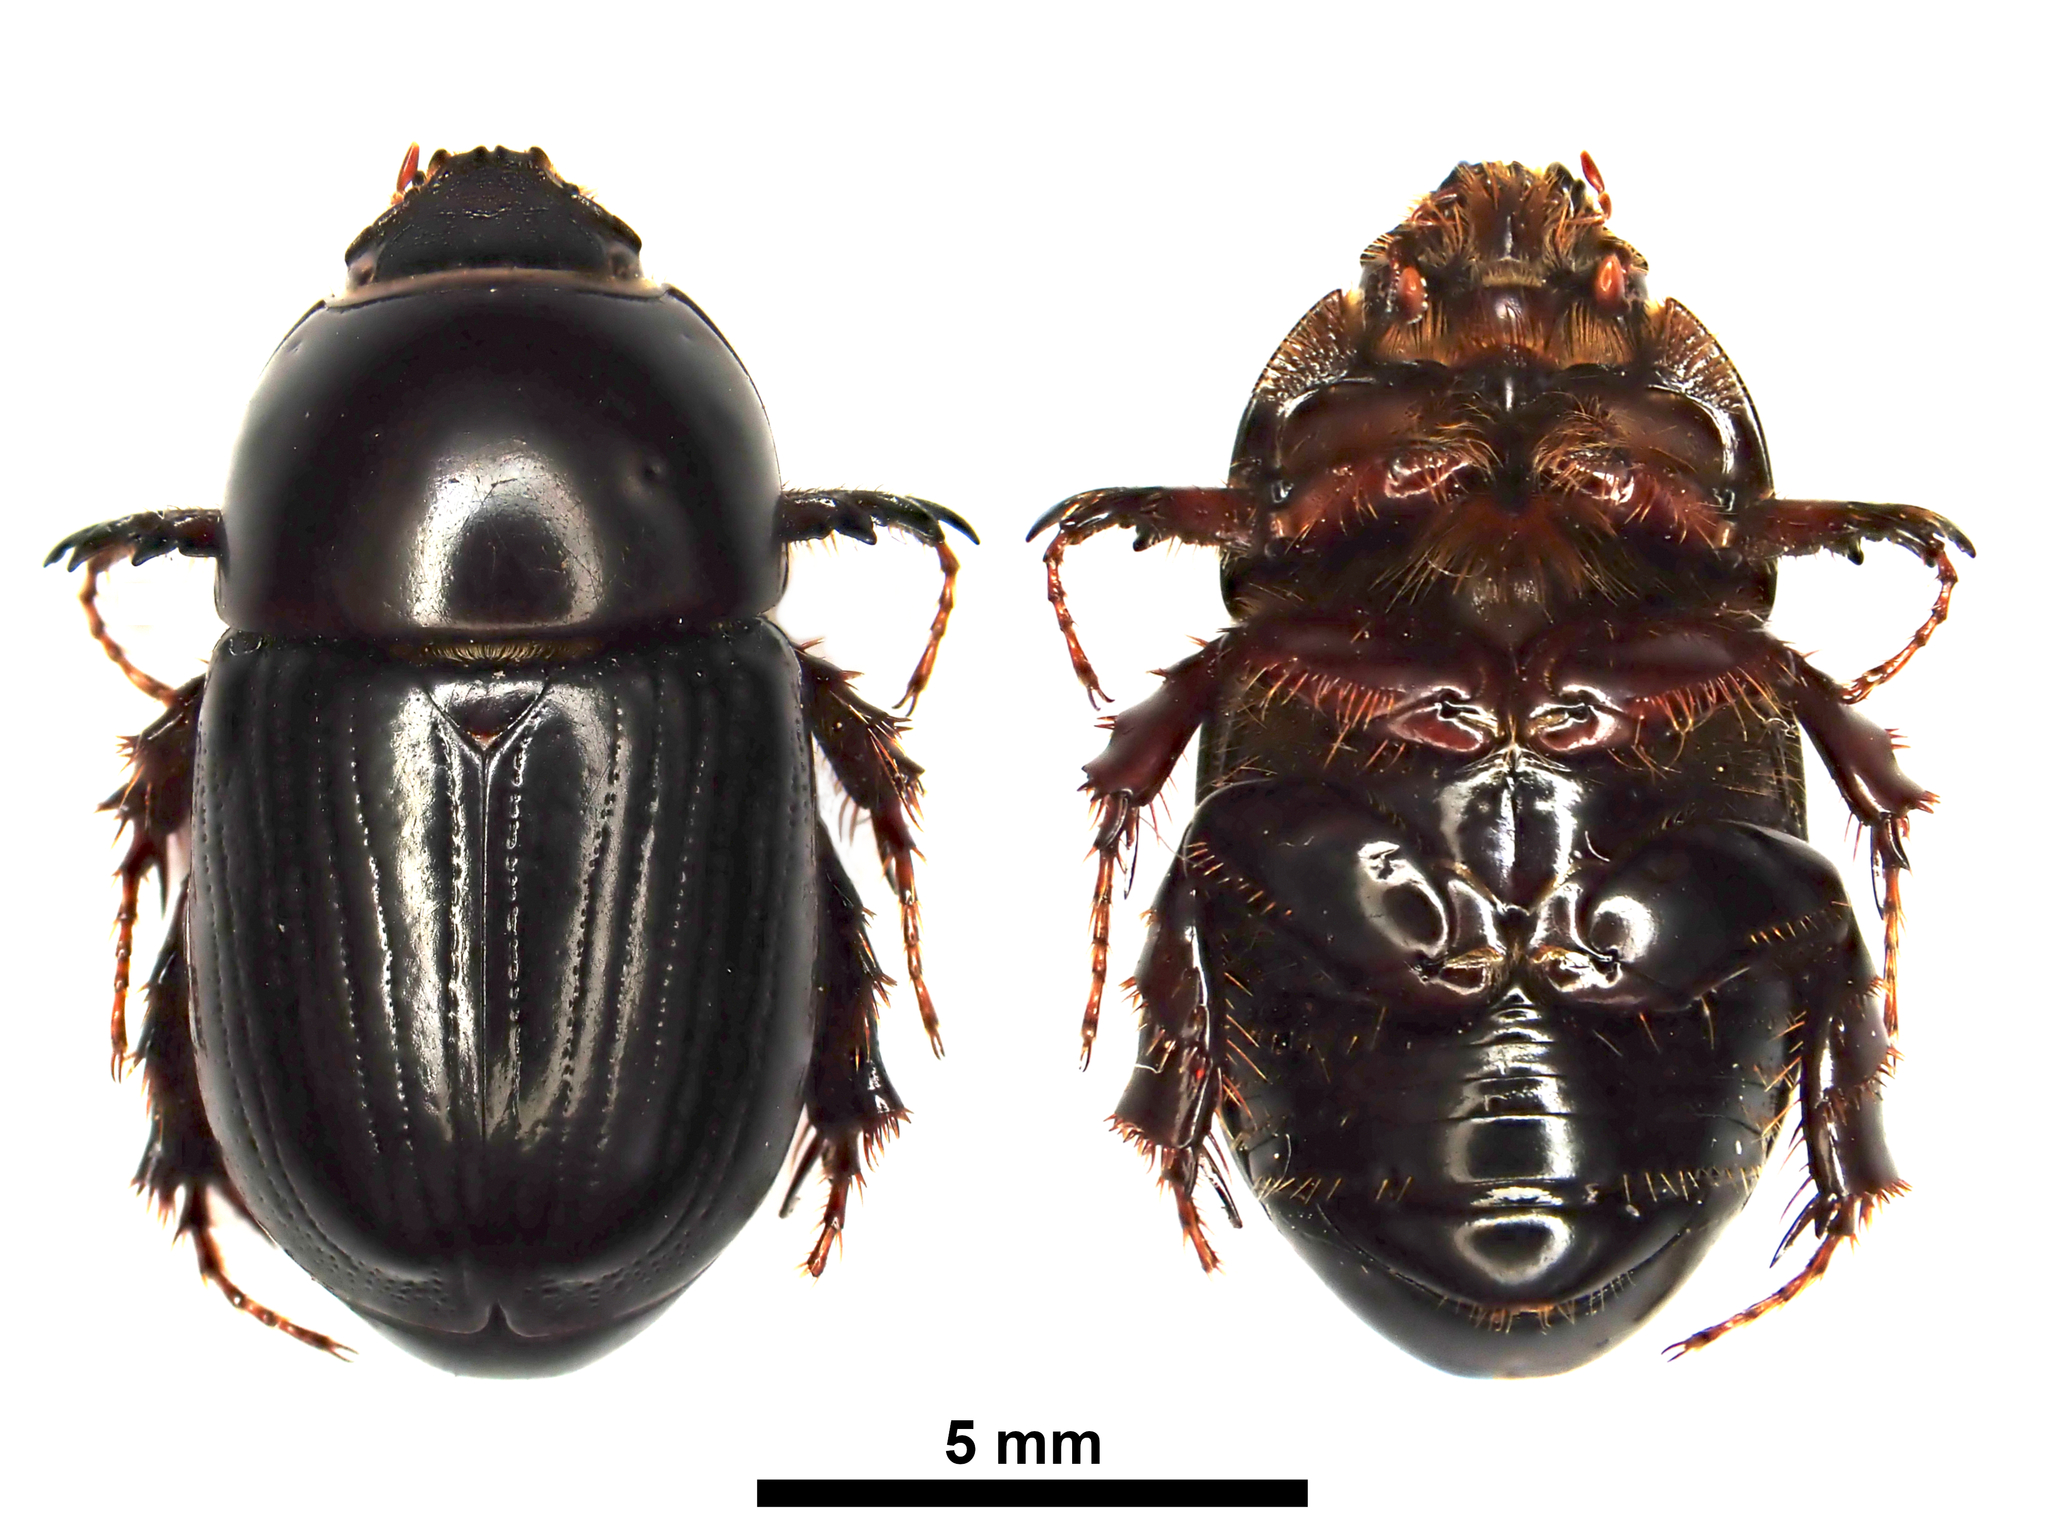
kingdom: Animalia
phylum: Arthropoda
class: Insecta
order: Coleoptera
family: Scarabaeidae
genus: Heteronychus
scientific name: Heteronychus arator
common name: African black beetle
